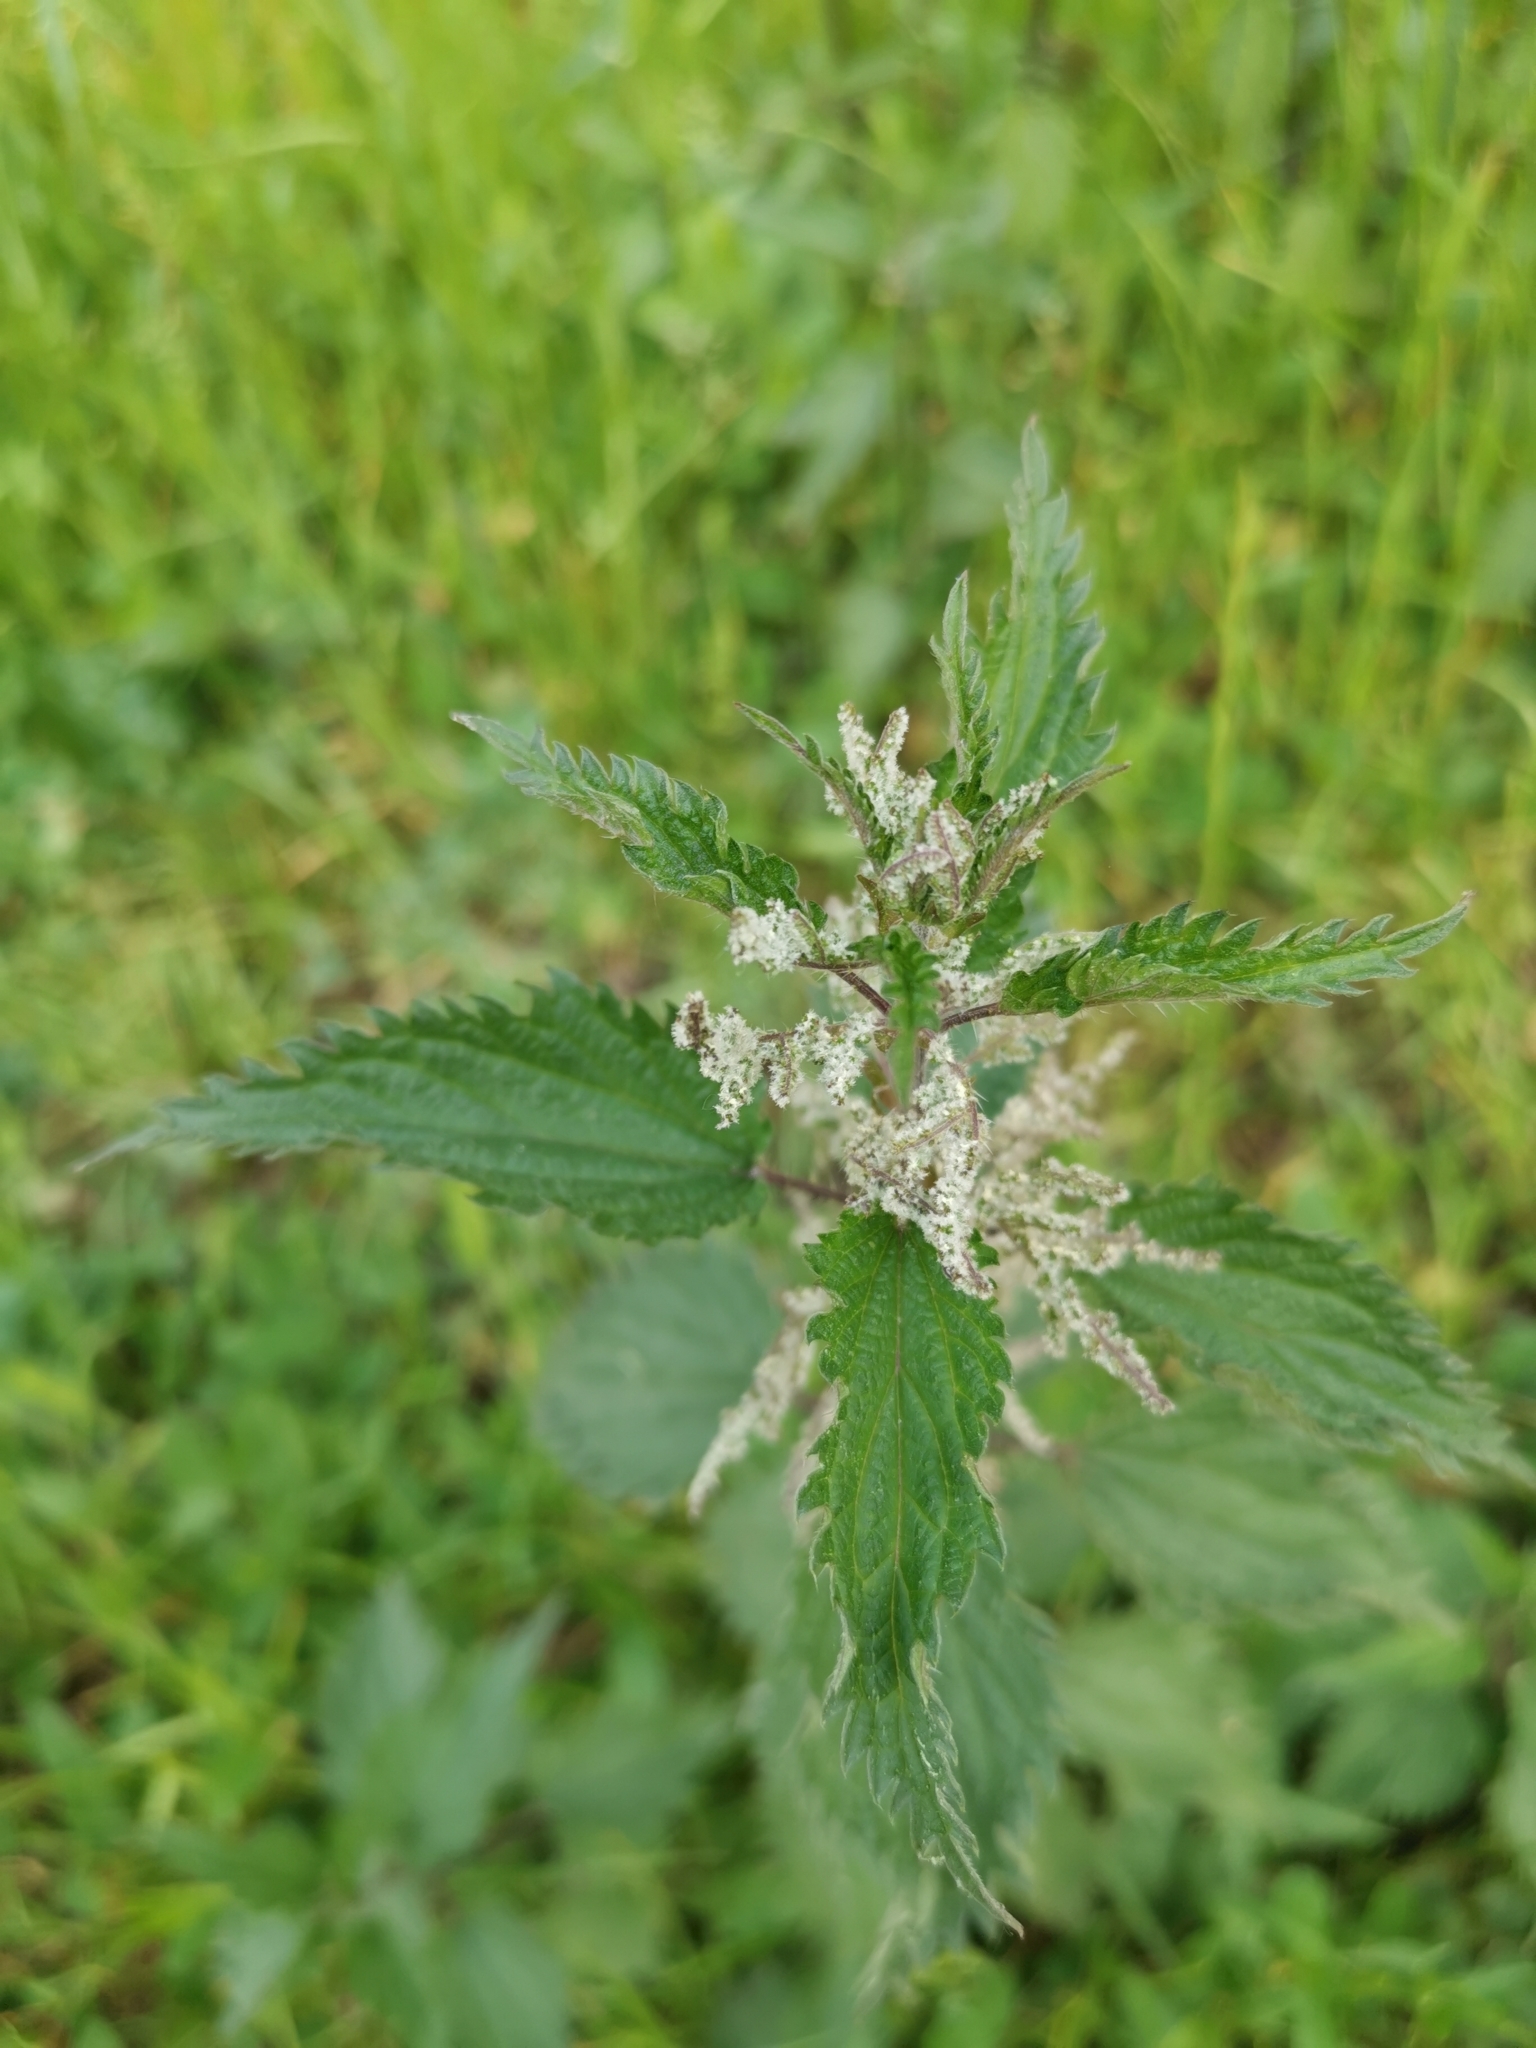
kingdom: Plantae
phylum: Tracheophyta
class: Magnoliopsida
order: Rosales
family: Urticaceae
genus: Urtica
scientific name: Urtica dioica
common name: Common nettle
